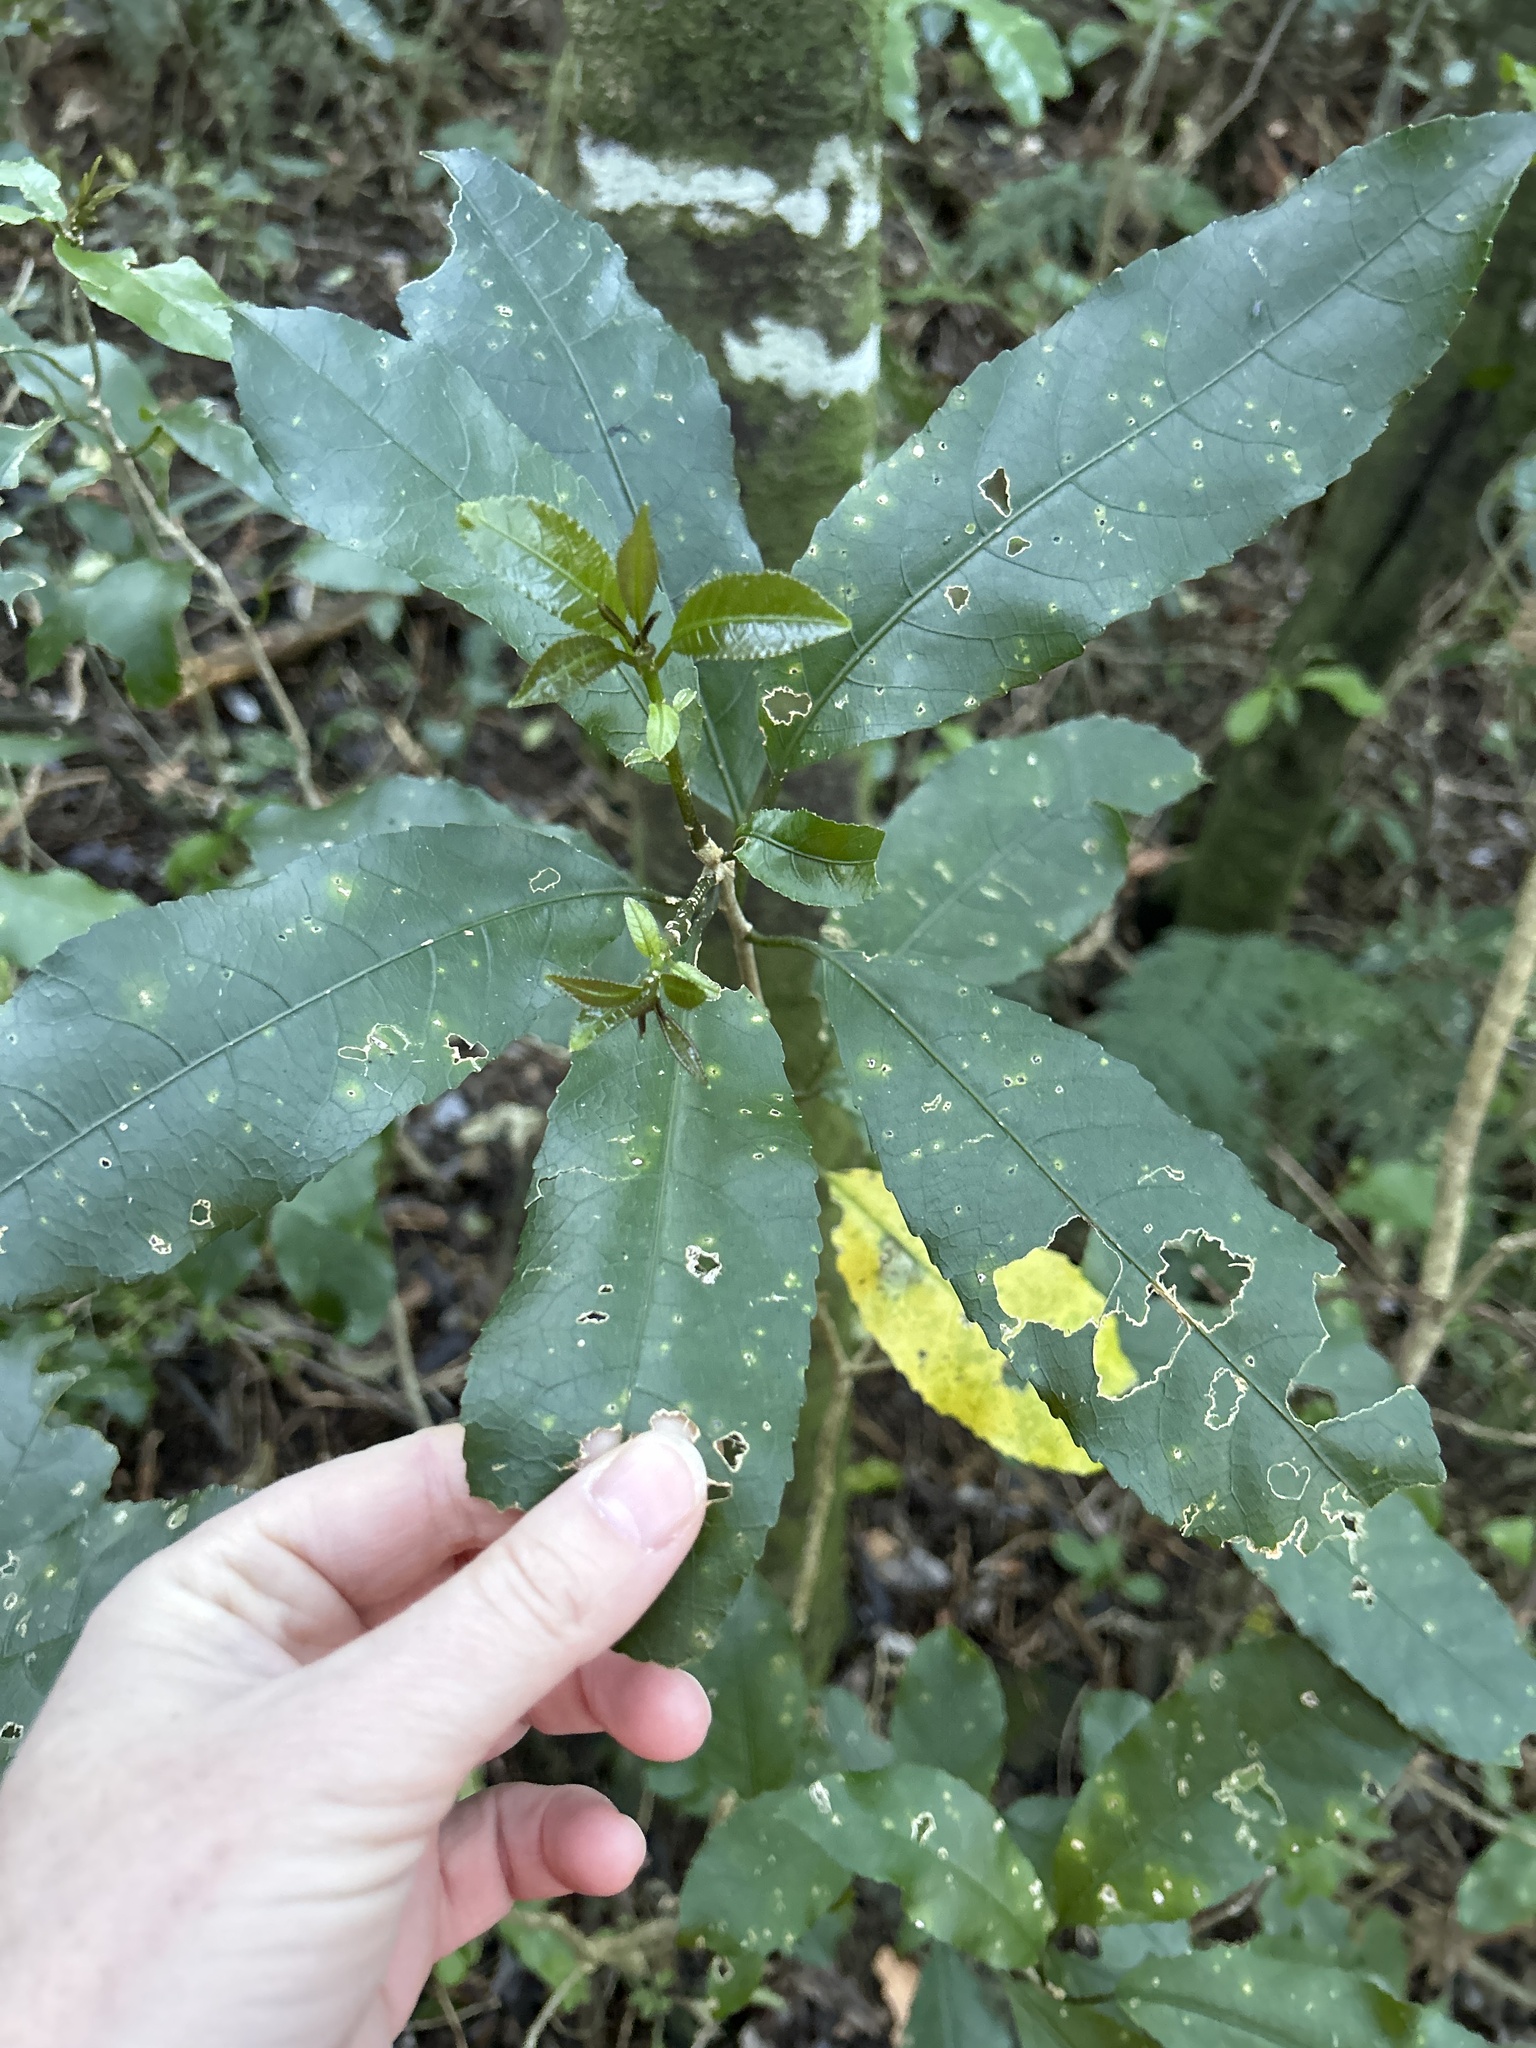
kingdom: Plantae
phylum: Tracheophyta
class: Magnoliopsida
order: Malpighiales
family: Violaceae
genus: Melicytus
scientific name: Melicytus ramiflorus
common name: Mahoe
